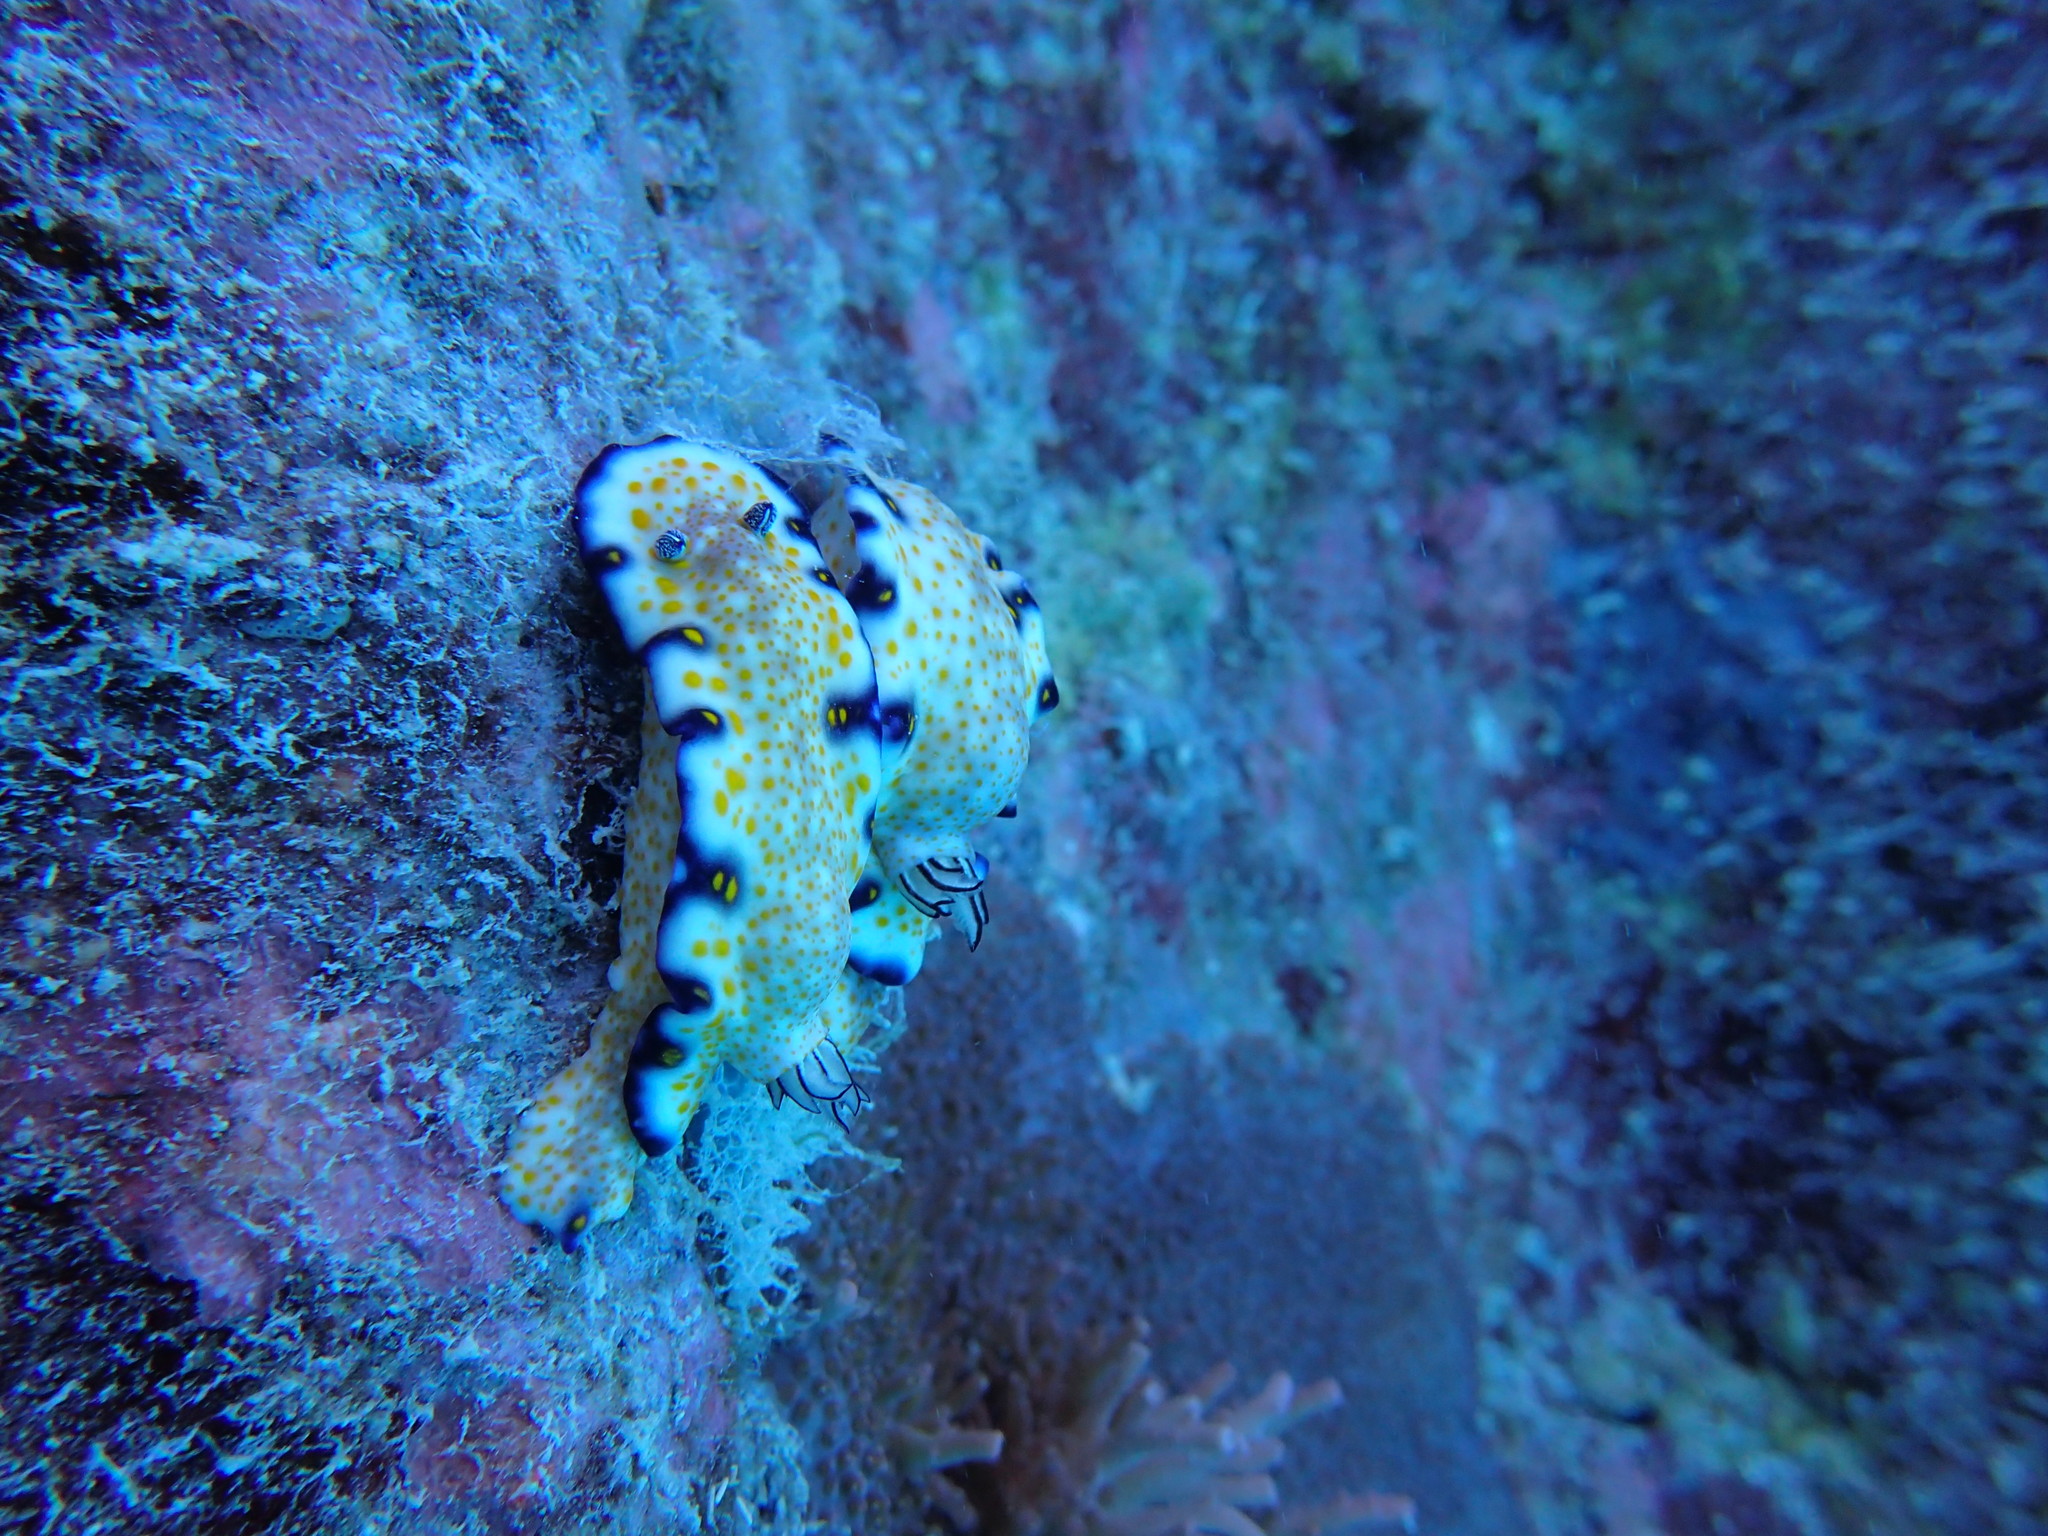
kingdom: Animalia
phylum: Mollusca
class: Gastropoda
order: Nudibranchia
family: Chromodorididae
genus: Hypselodoris
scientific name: Hypselodoris imperialis
